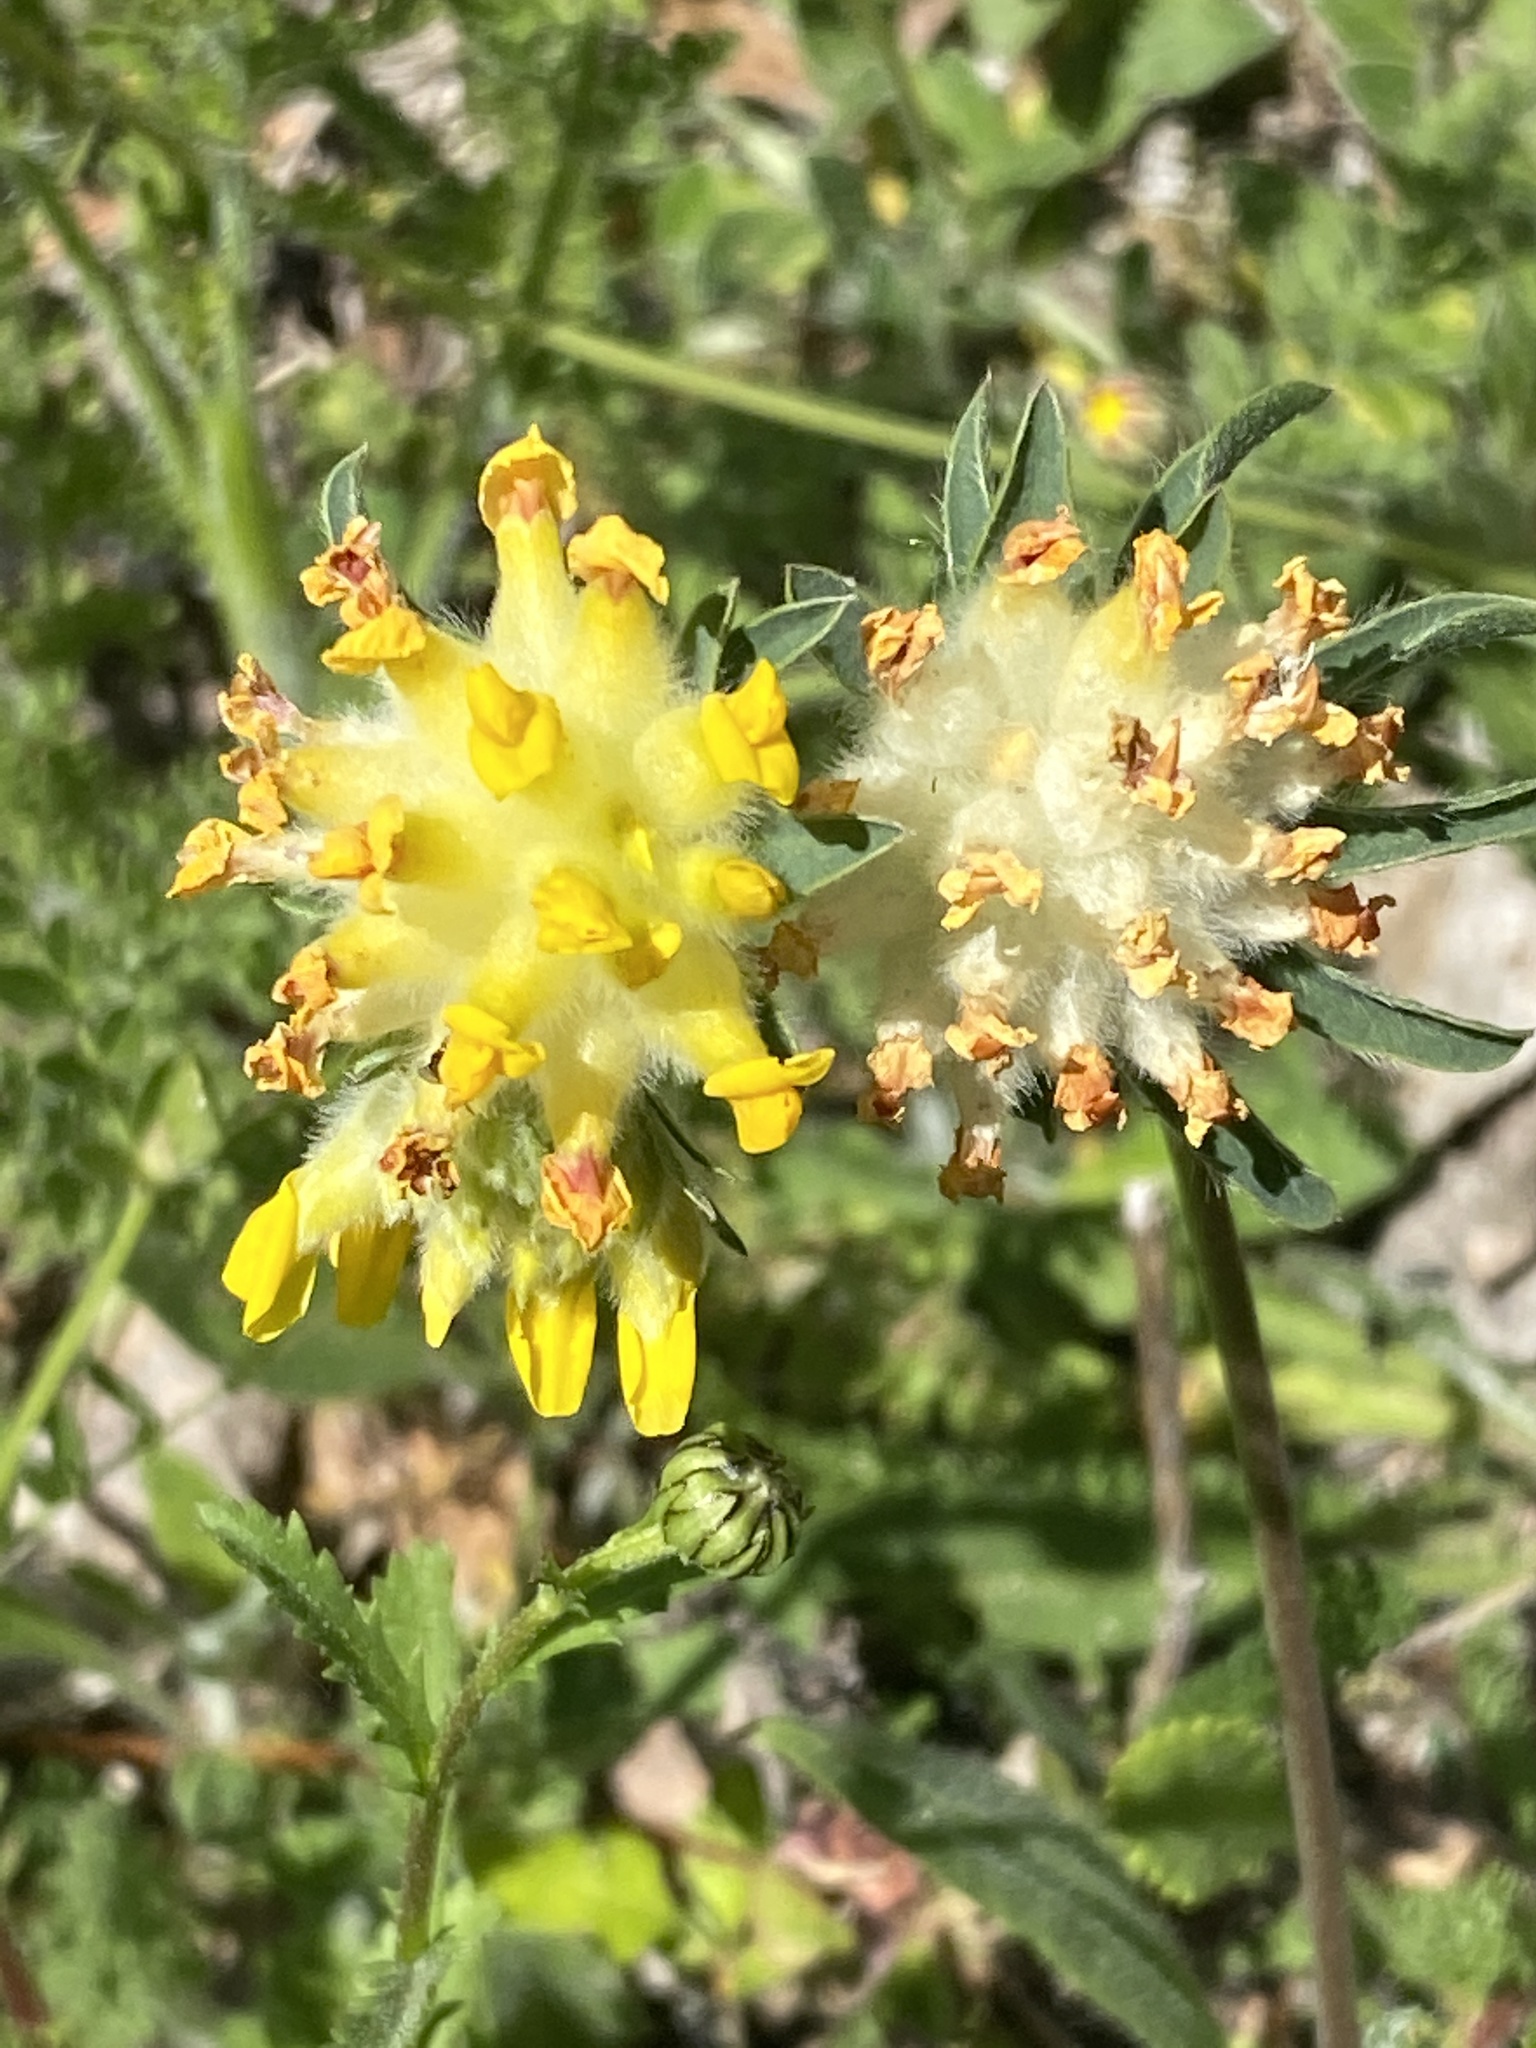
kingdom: Plantae
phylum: Tracheophyta
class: Magnoliopsida
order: Fabales
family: Fabaceae
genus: Anthyllis
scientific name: Anthyllis vulneraria
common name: Kidney vetch
